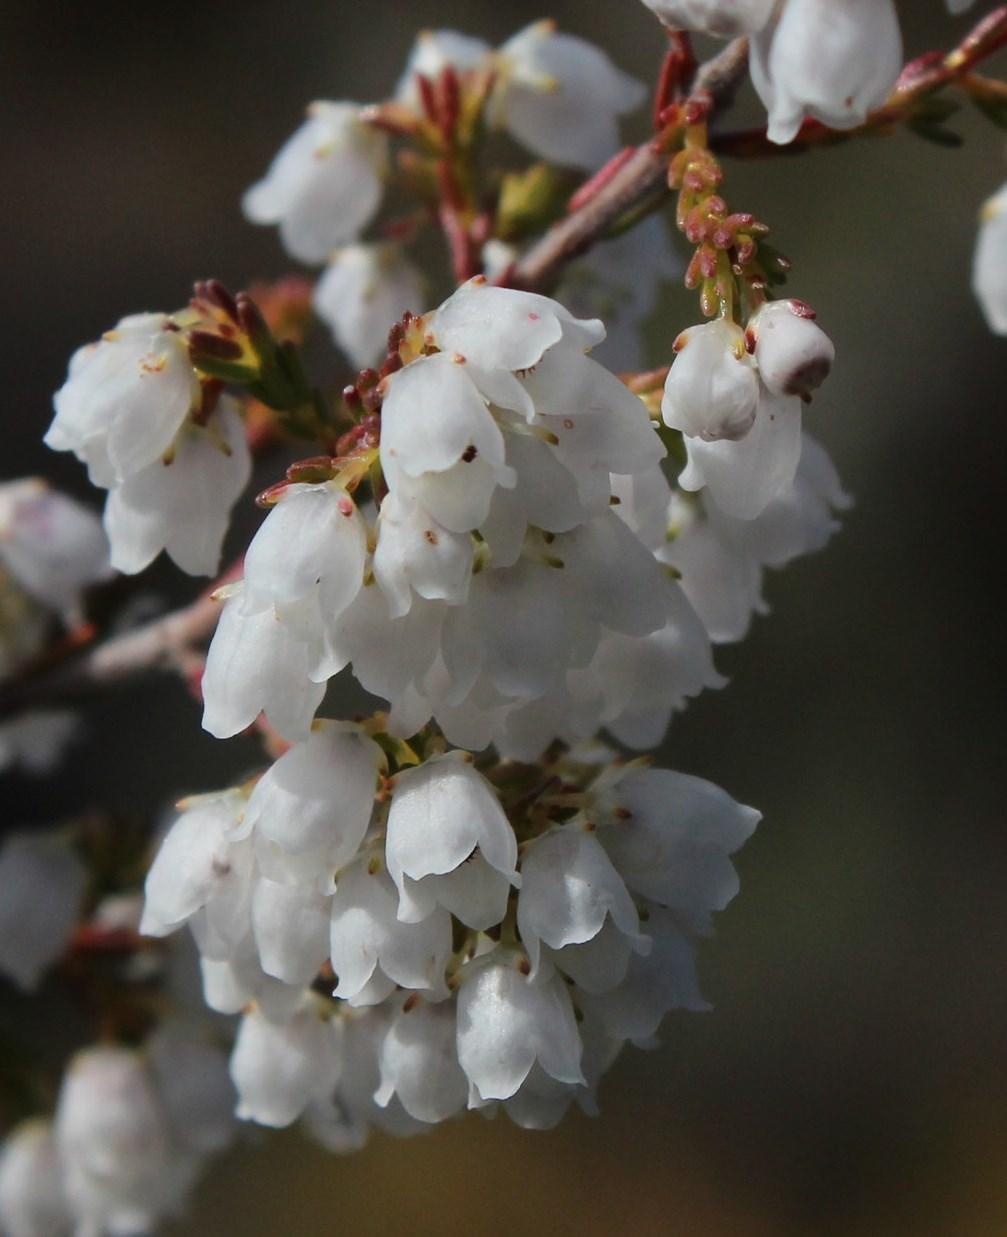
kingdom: Plantae
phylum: Tracheophyta
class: Magnoliopsida
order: Ericales
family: Ericaceae
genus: Erica
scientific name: Erica quadrangularis
